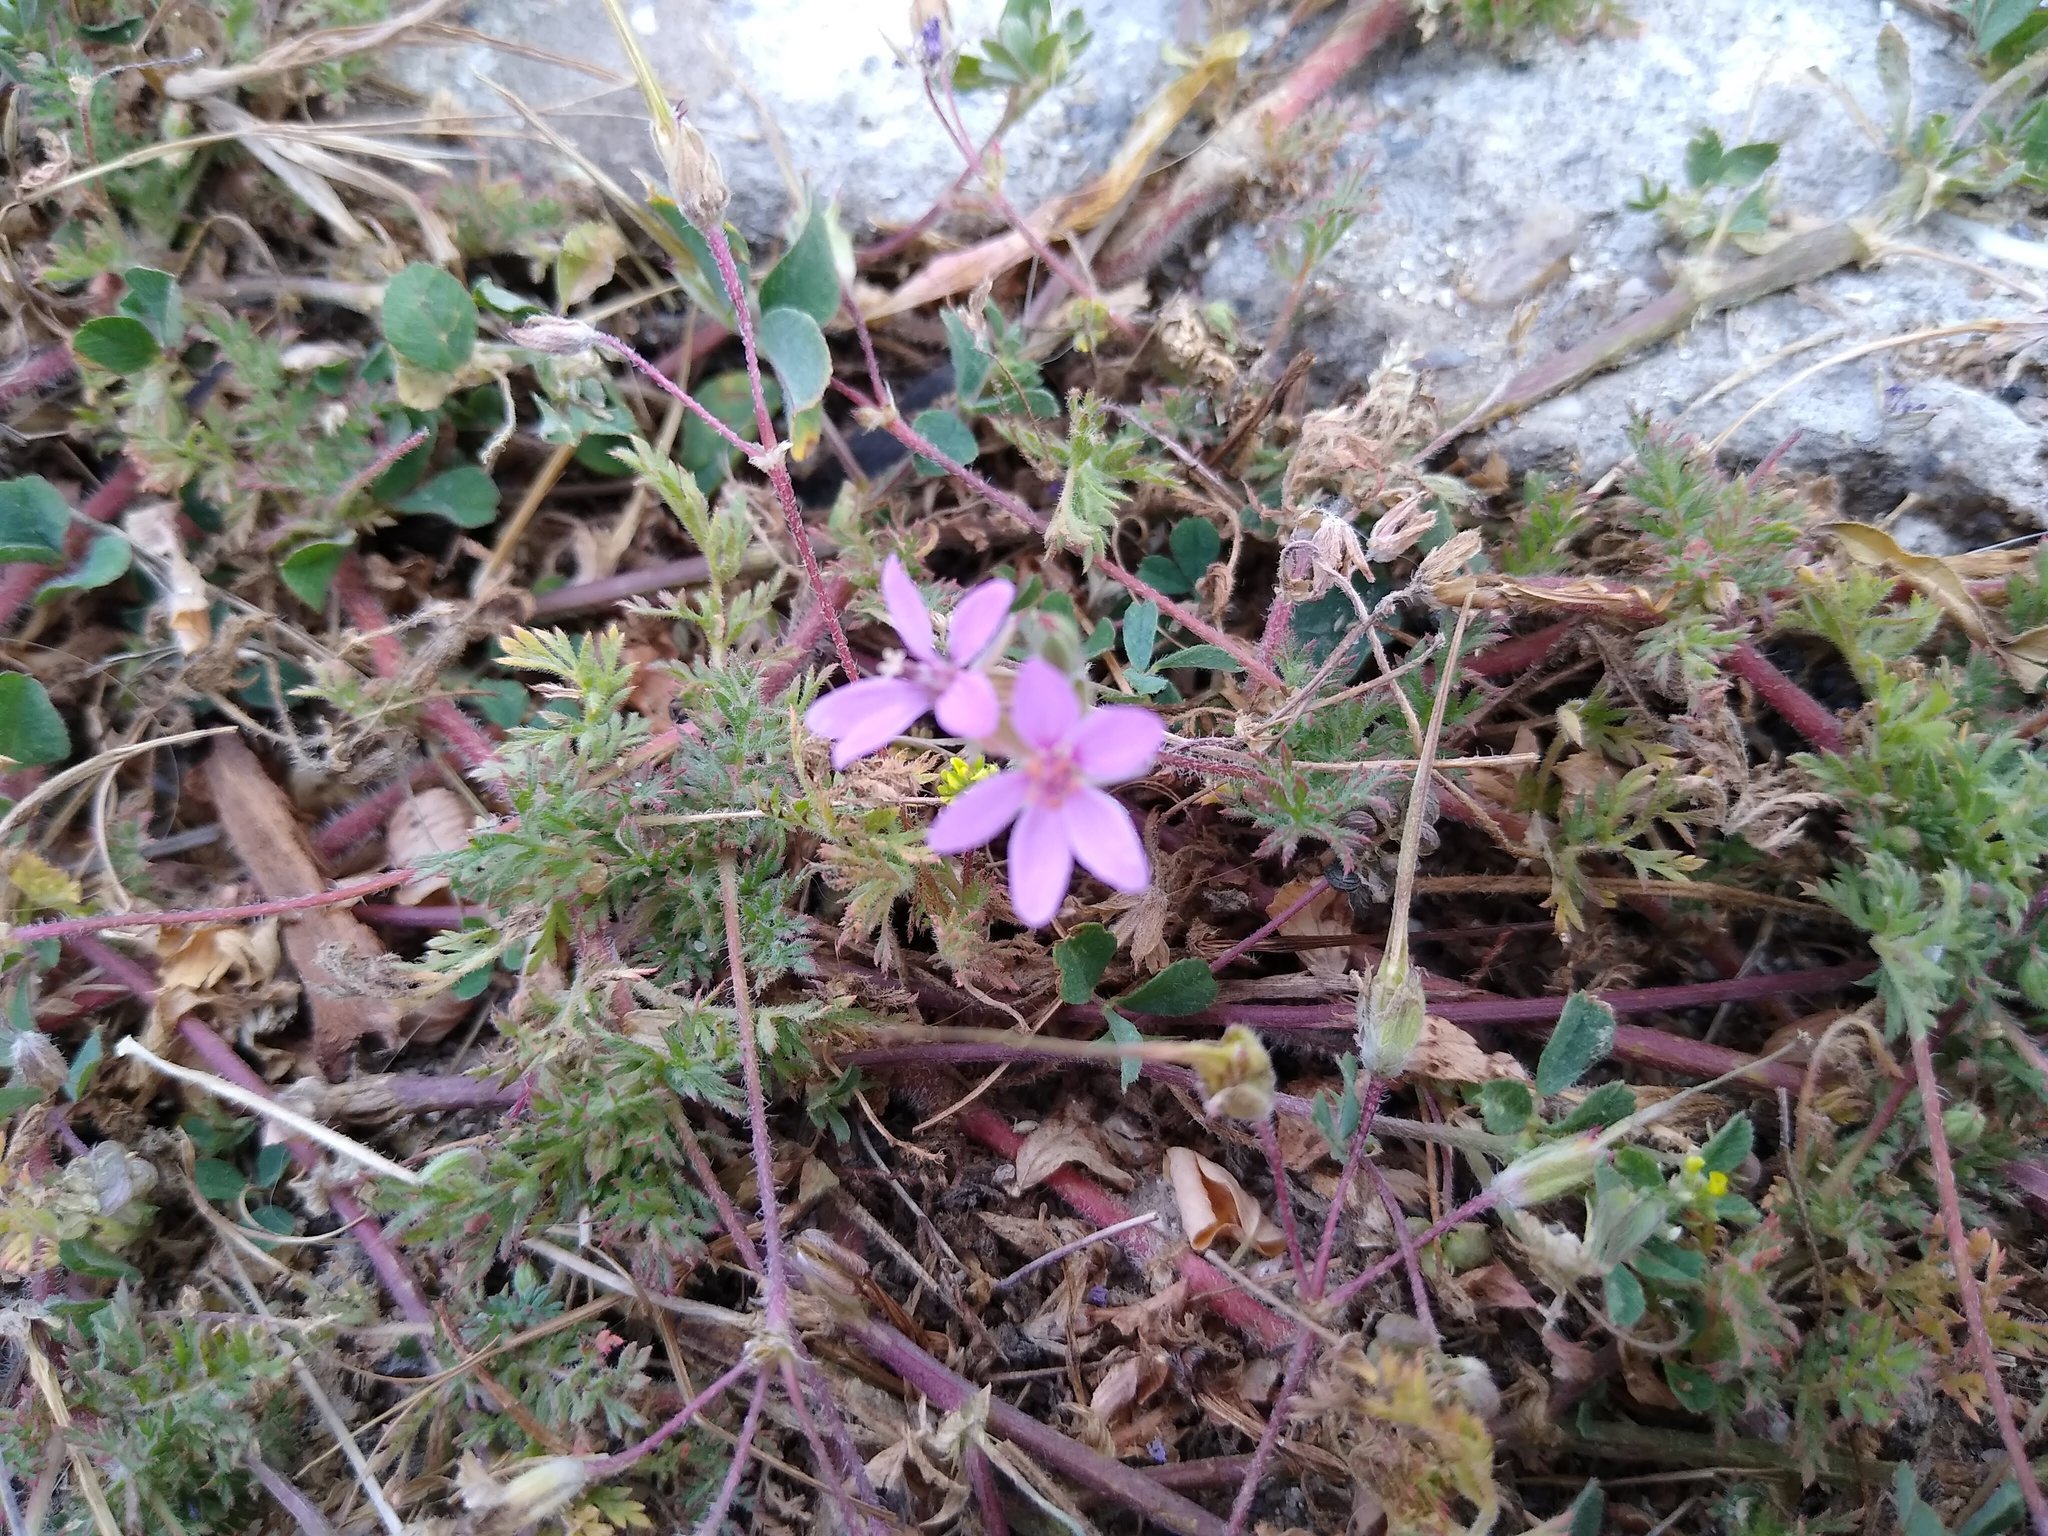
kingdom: Plantae
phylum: Tracheophyta
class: Magnoliopsida
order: Geraniales
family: Geraniaceae
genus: Erodium
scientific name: Erodium cicutarium
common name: Common stork's-bill
